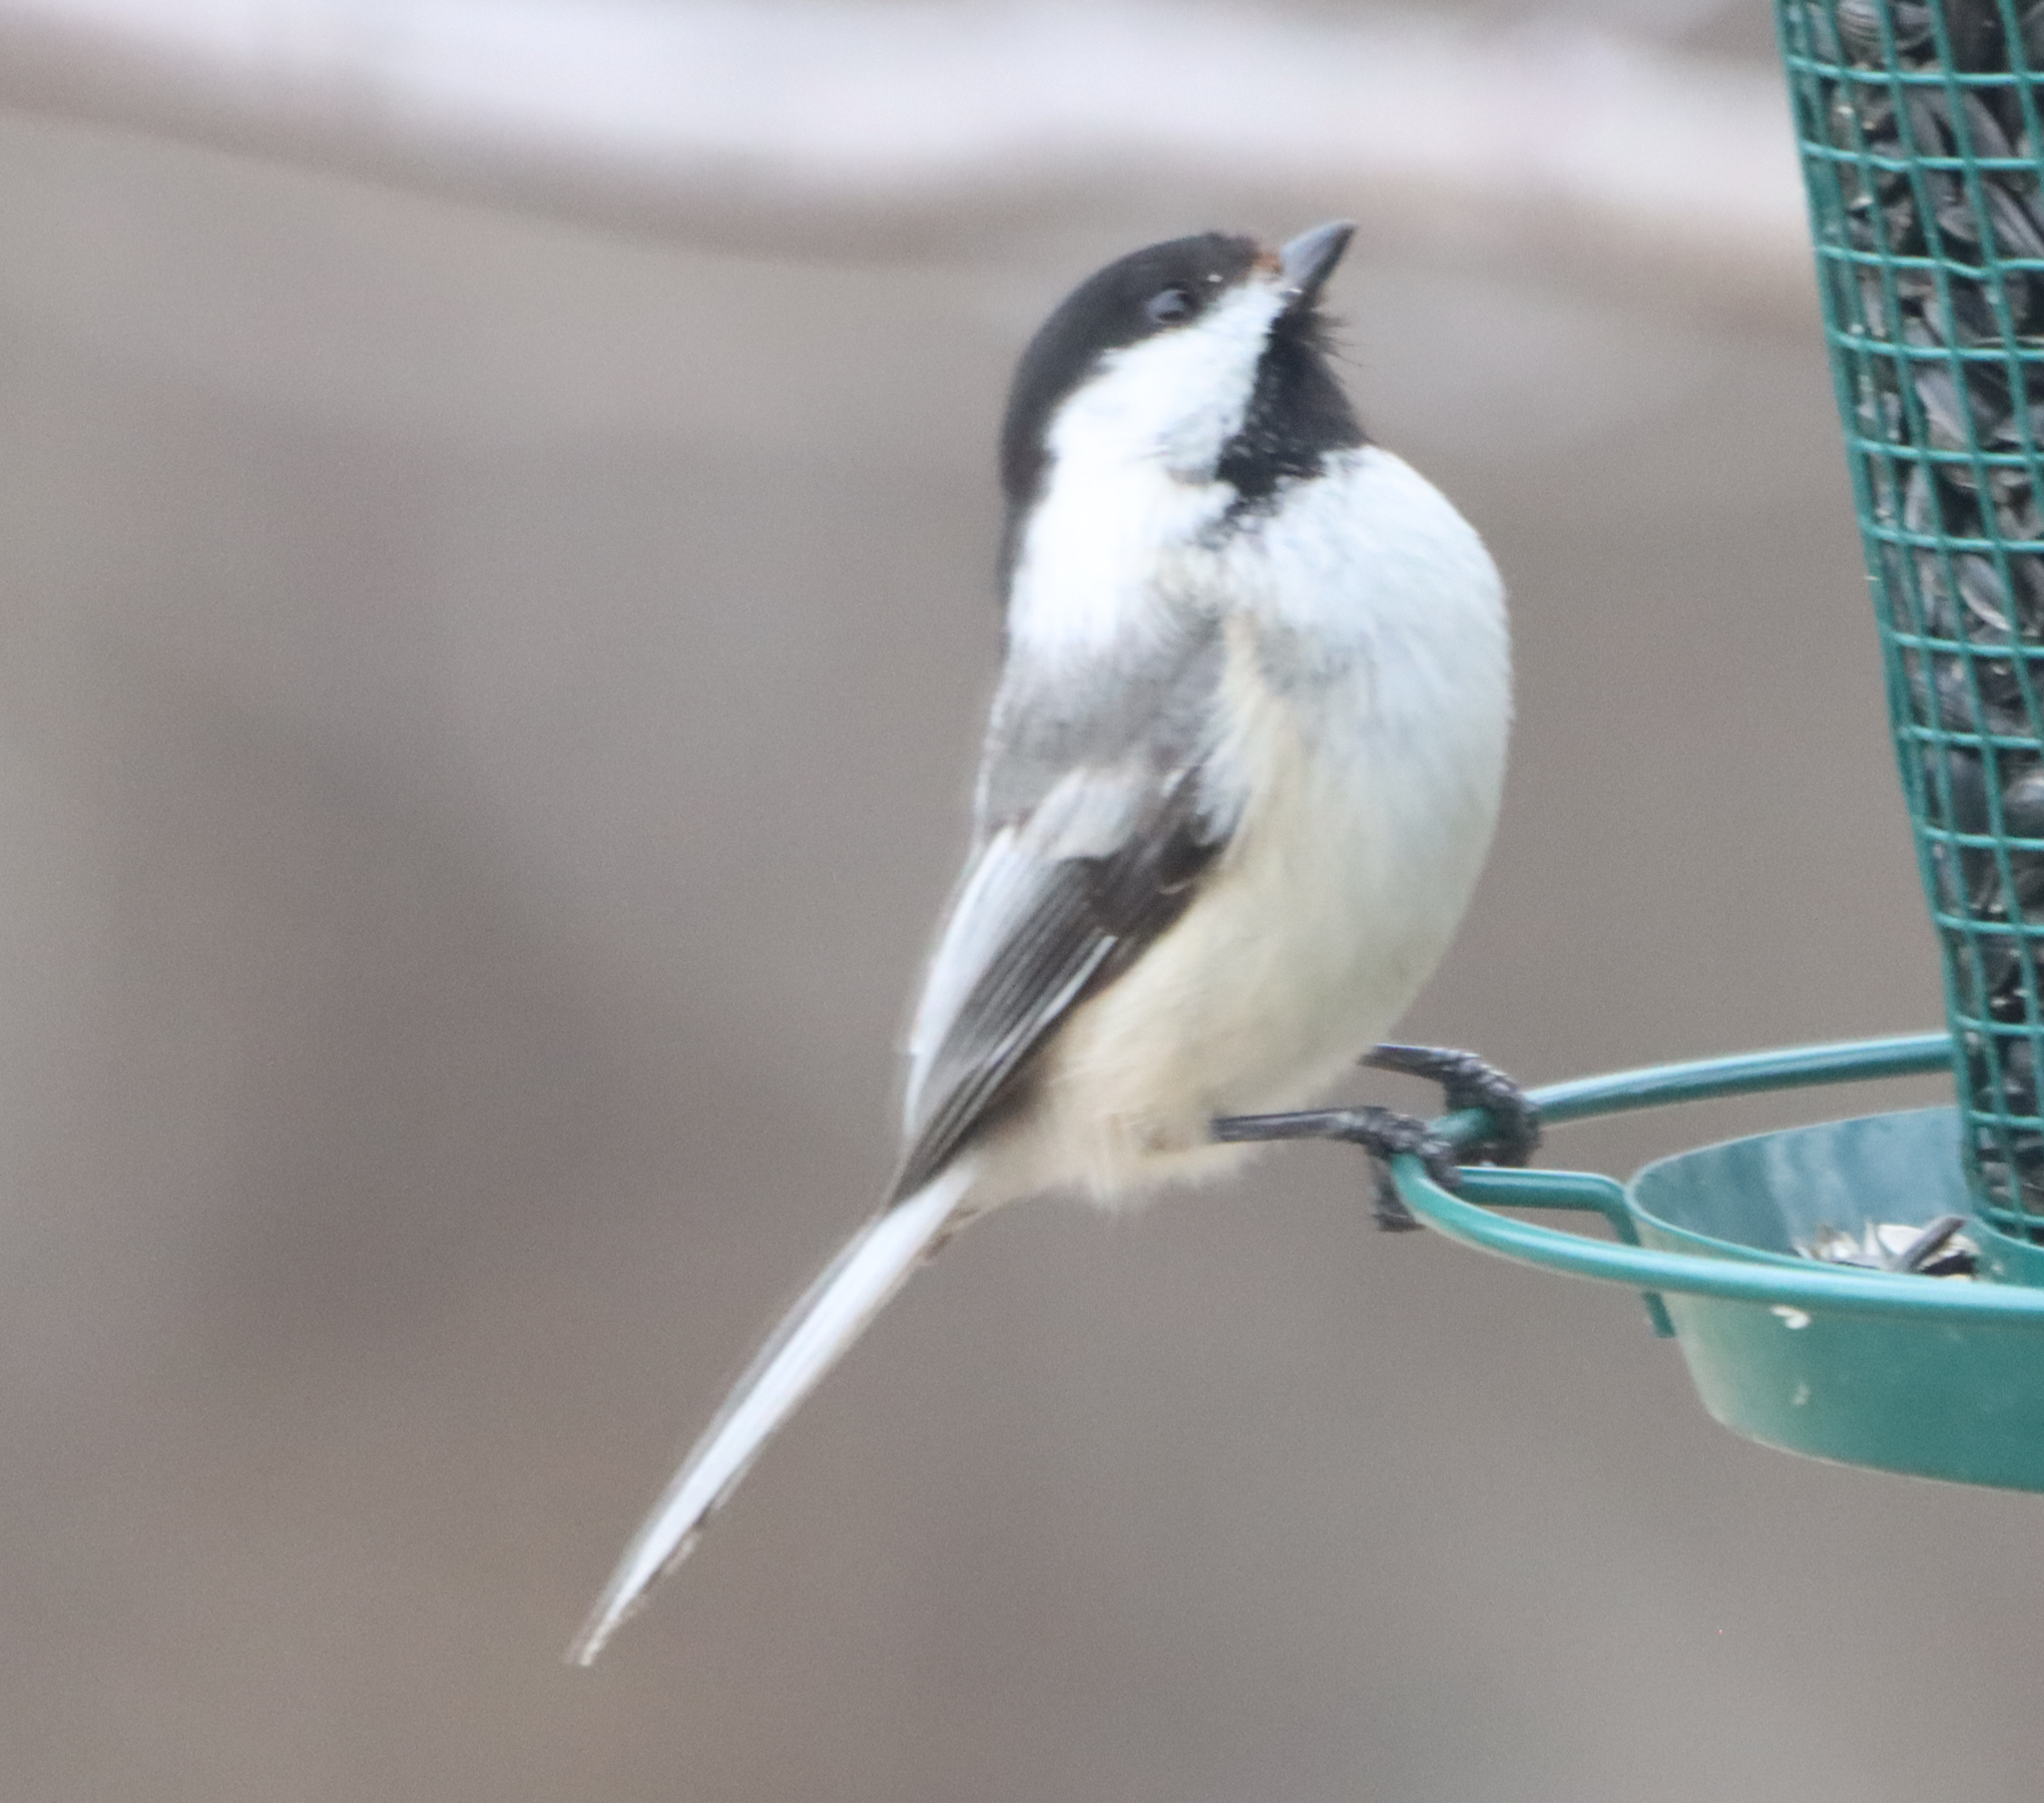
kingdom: Animalia
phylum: Chordata
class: Aves
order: Passeriformes
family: Paridae
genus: Poecile
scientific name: Poecile atricapillus
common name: Black-capped chickadee
